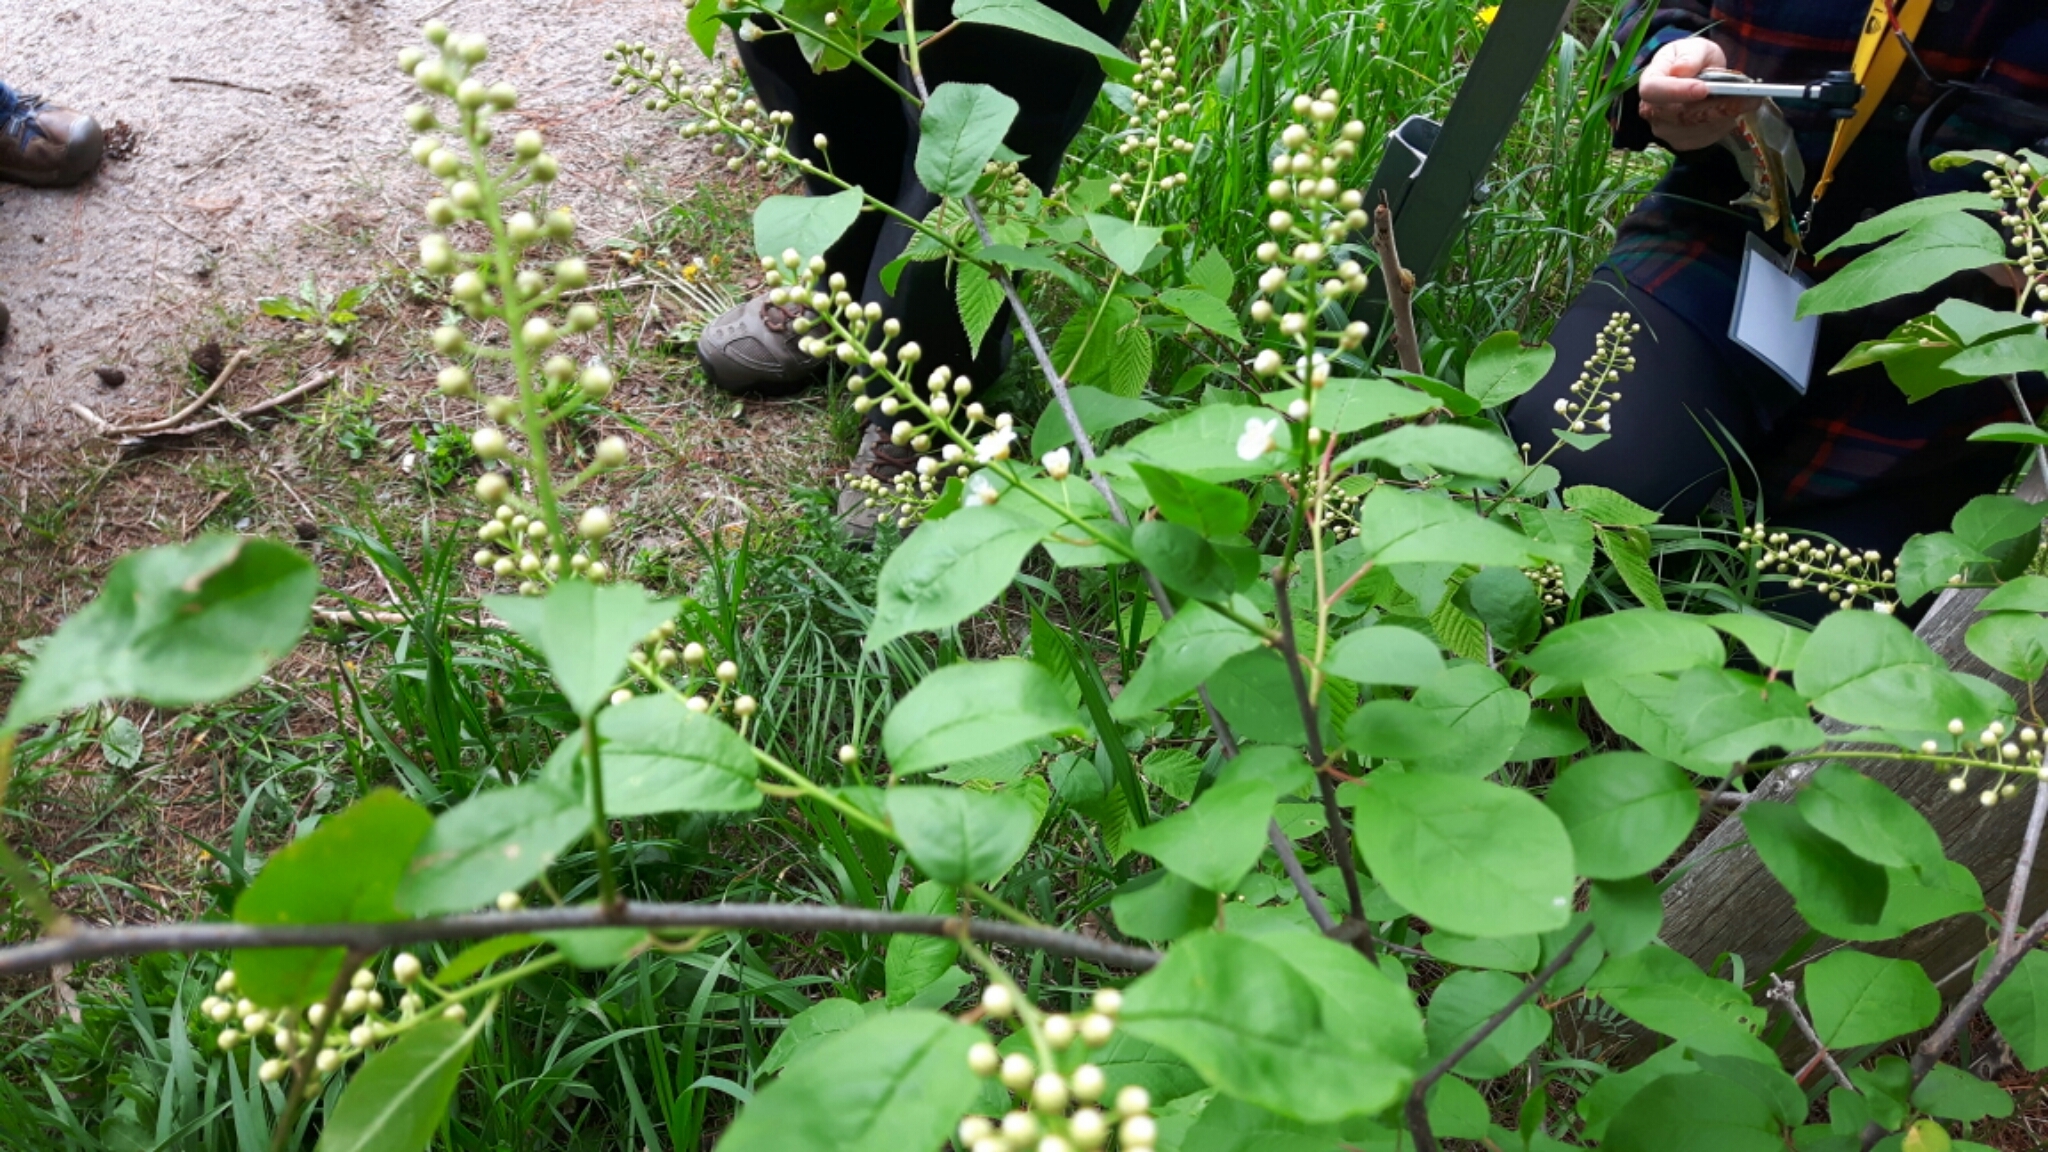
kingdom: Plantae
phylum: Tracheophyta
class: Magnoliopsida
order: Rosales
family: Rosaceae
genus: Prunus
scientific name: Prunus virginiana
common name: Chokecherry
